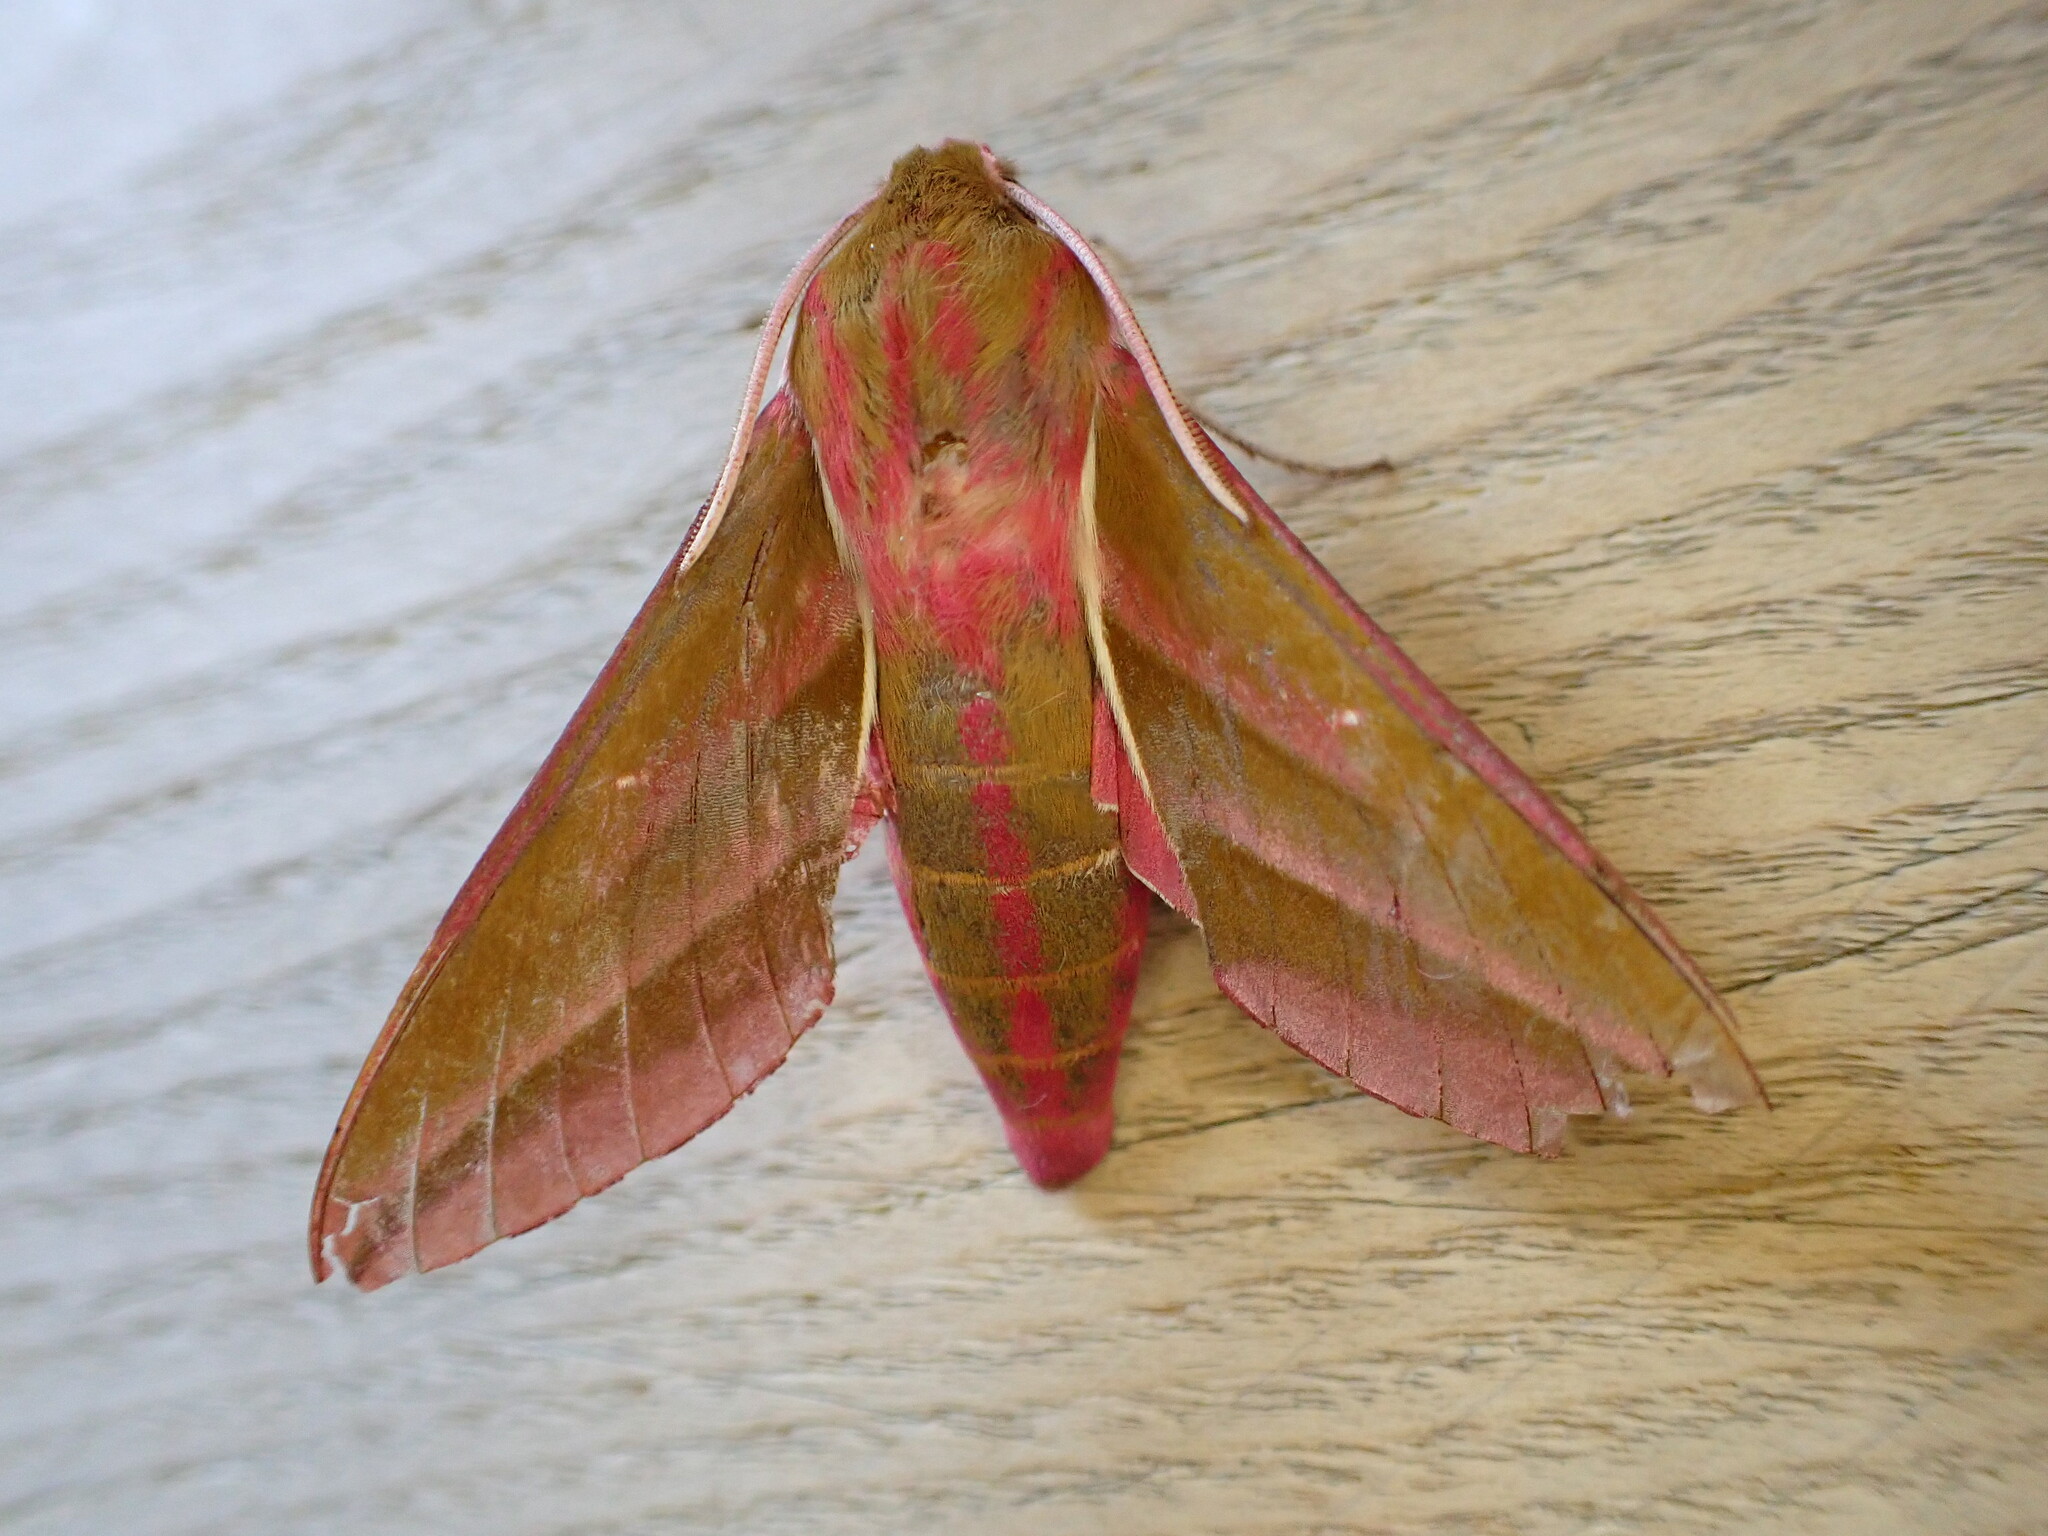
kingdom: Animalia
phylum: Arthropoda
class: Insecta
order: Lepidoptera
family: Sphingidae
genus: Deilephila
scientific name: Deilephila elpenor
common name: Elephant hawk-moth
